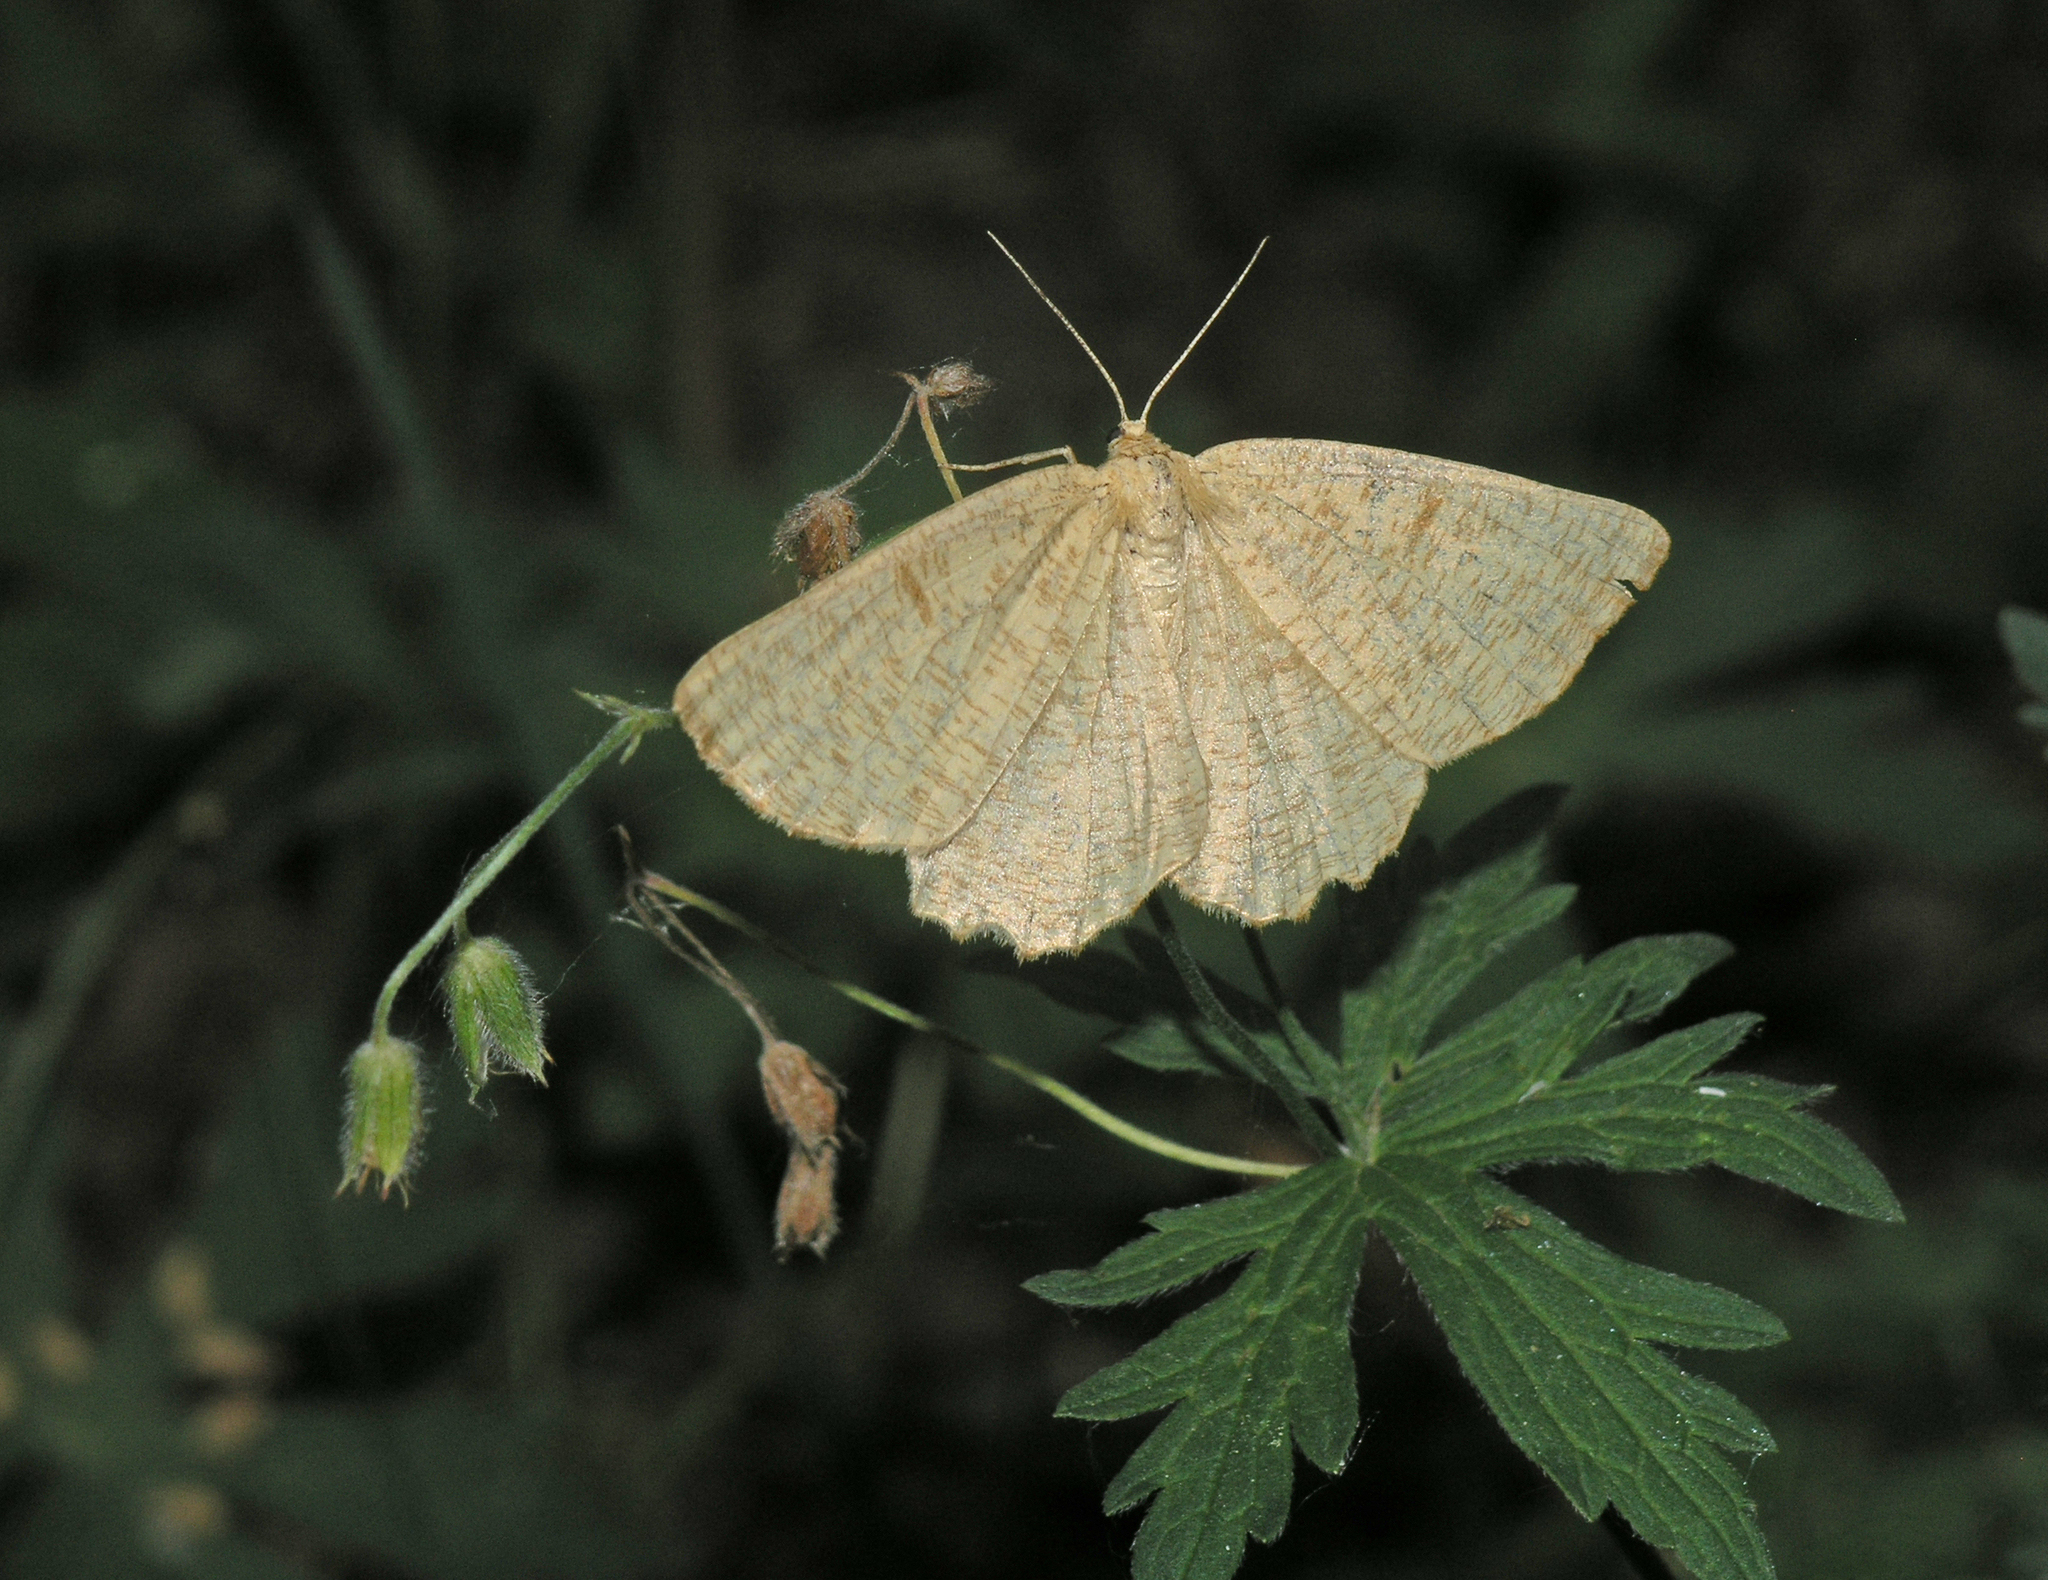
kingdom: Animalia
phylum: Arthropoda
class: Insecta
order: Lepidoptera
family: Geometridae
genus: Angerona
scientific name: Angerona prunaria
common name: Orange moth
